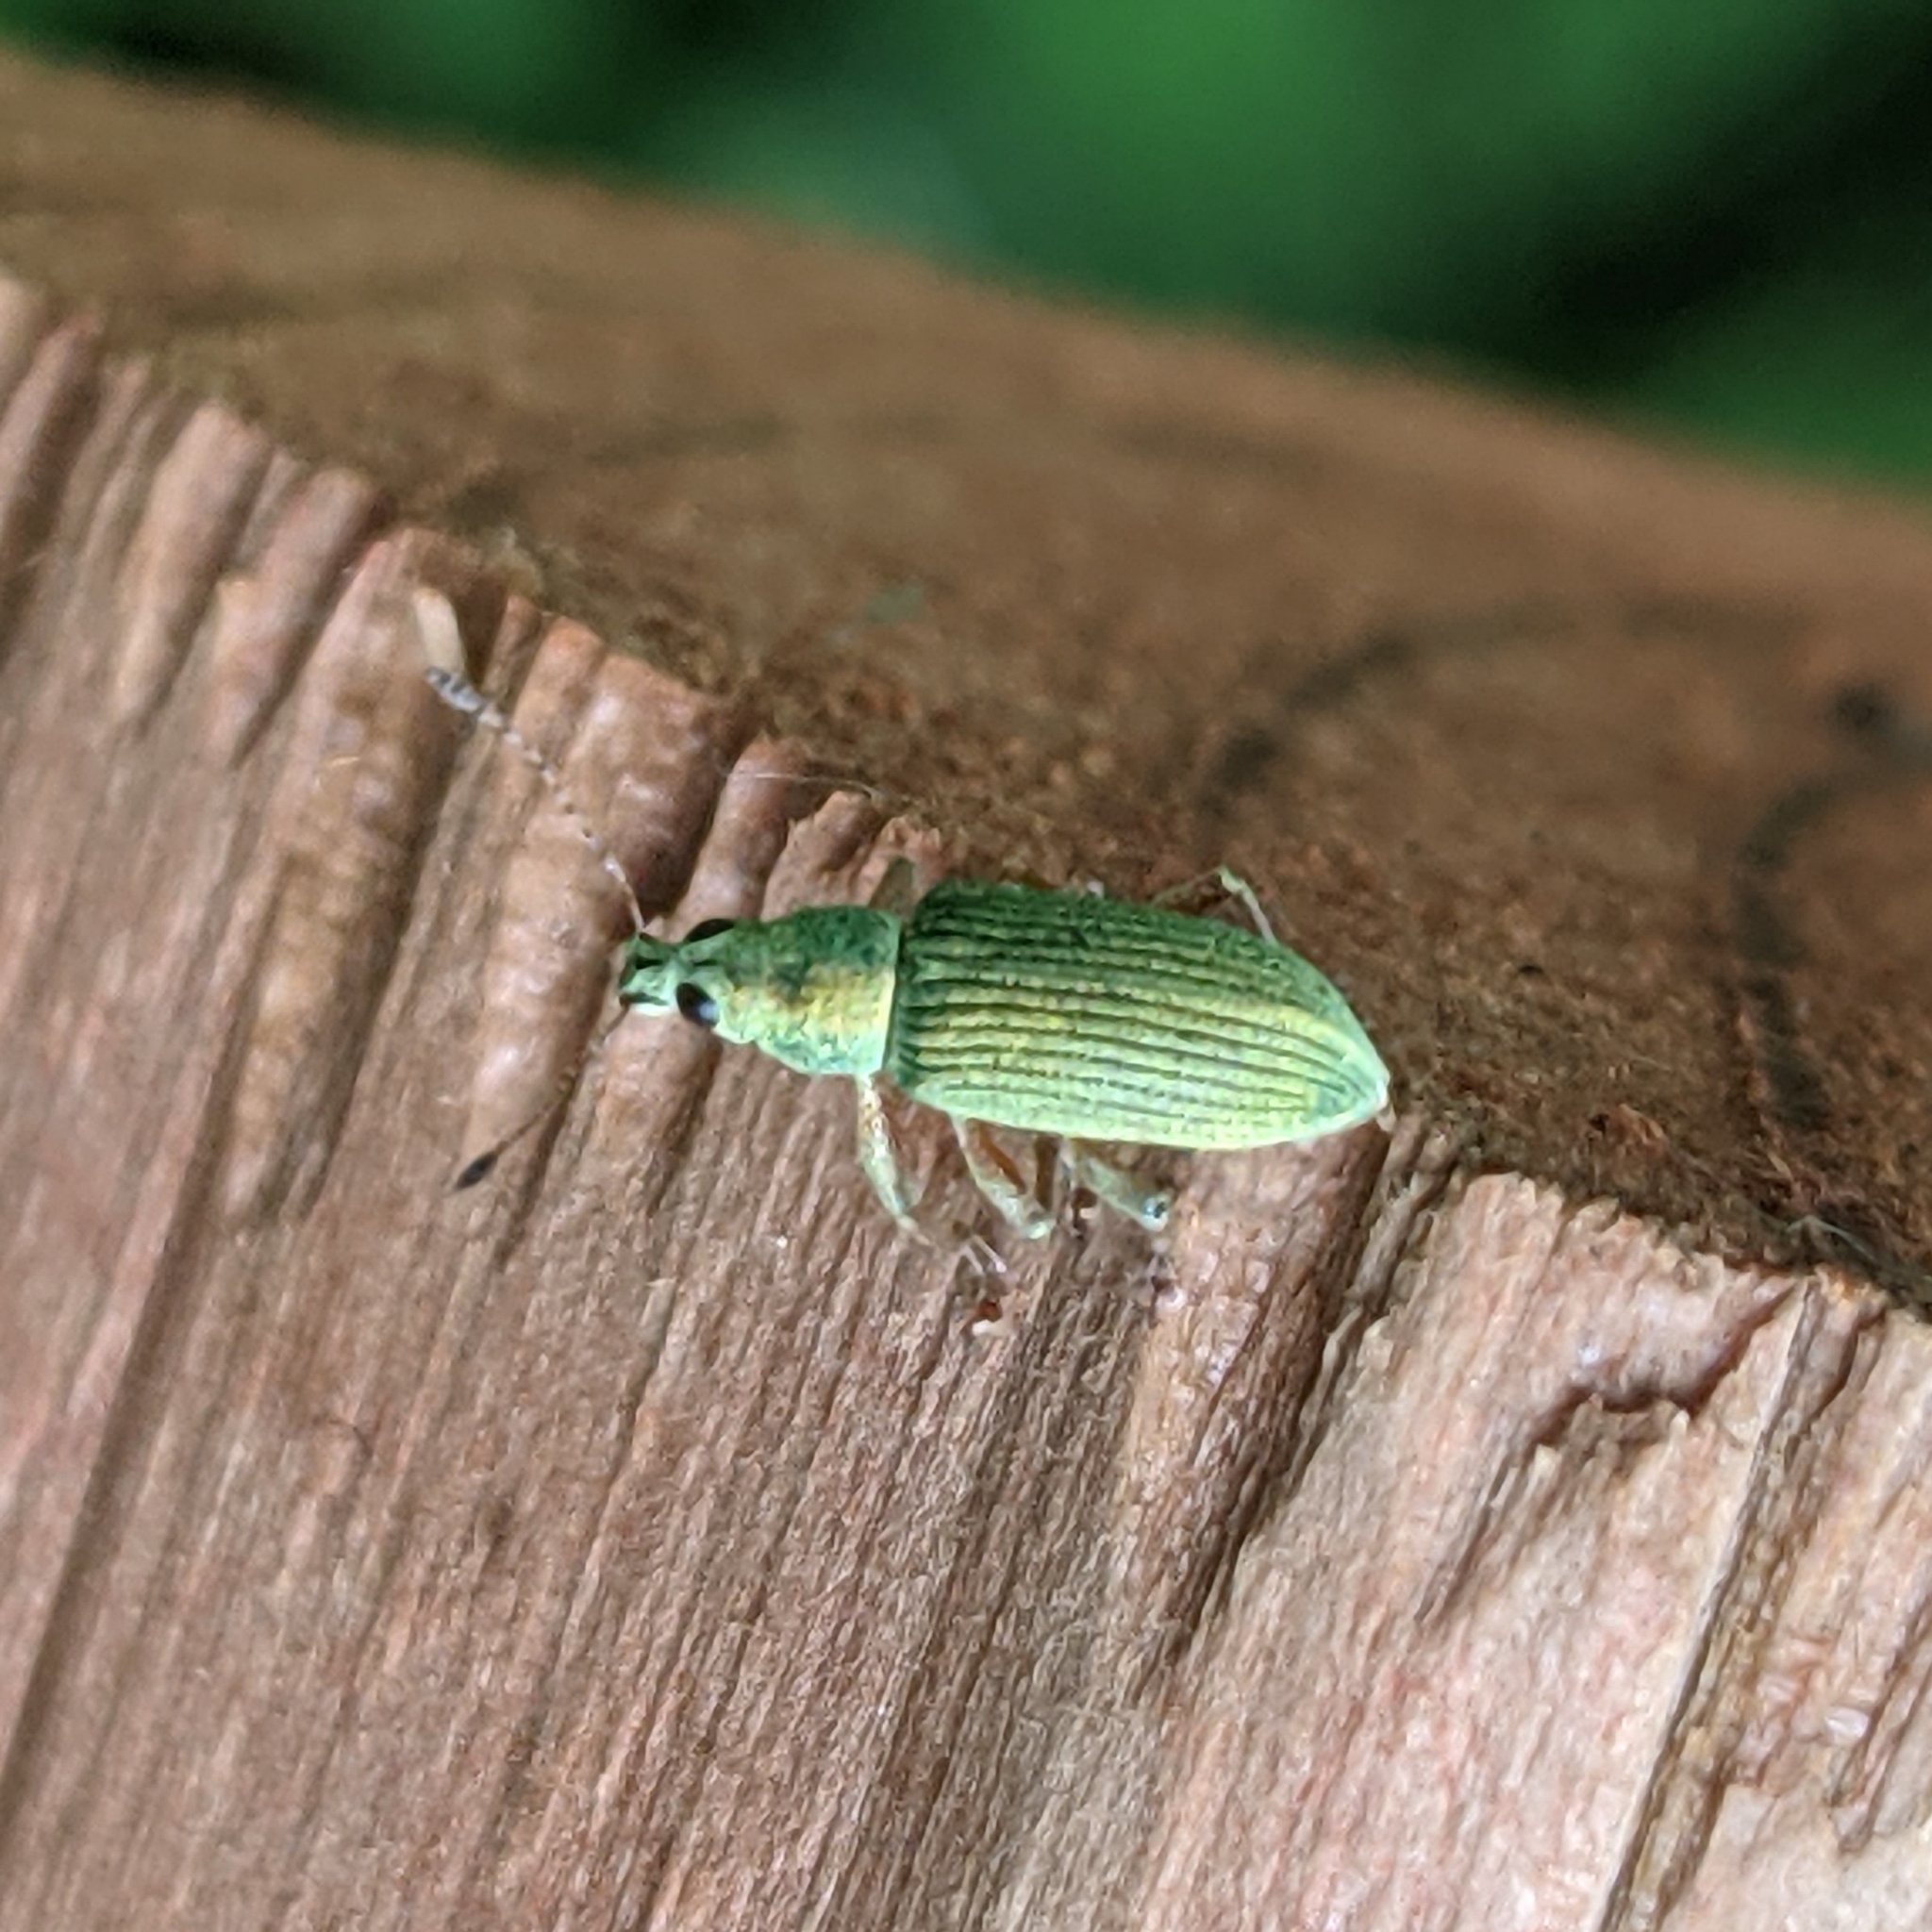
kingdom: Animalia
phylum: Arthropoda
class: Insecta
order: Coleoptera
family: Curculionidae
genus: Polydrusus
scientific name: Polydrusus formosus
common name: Weevil
